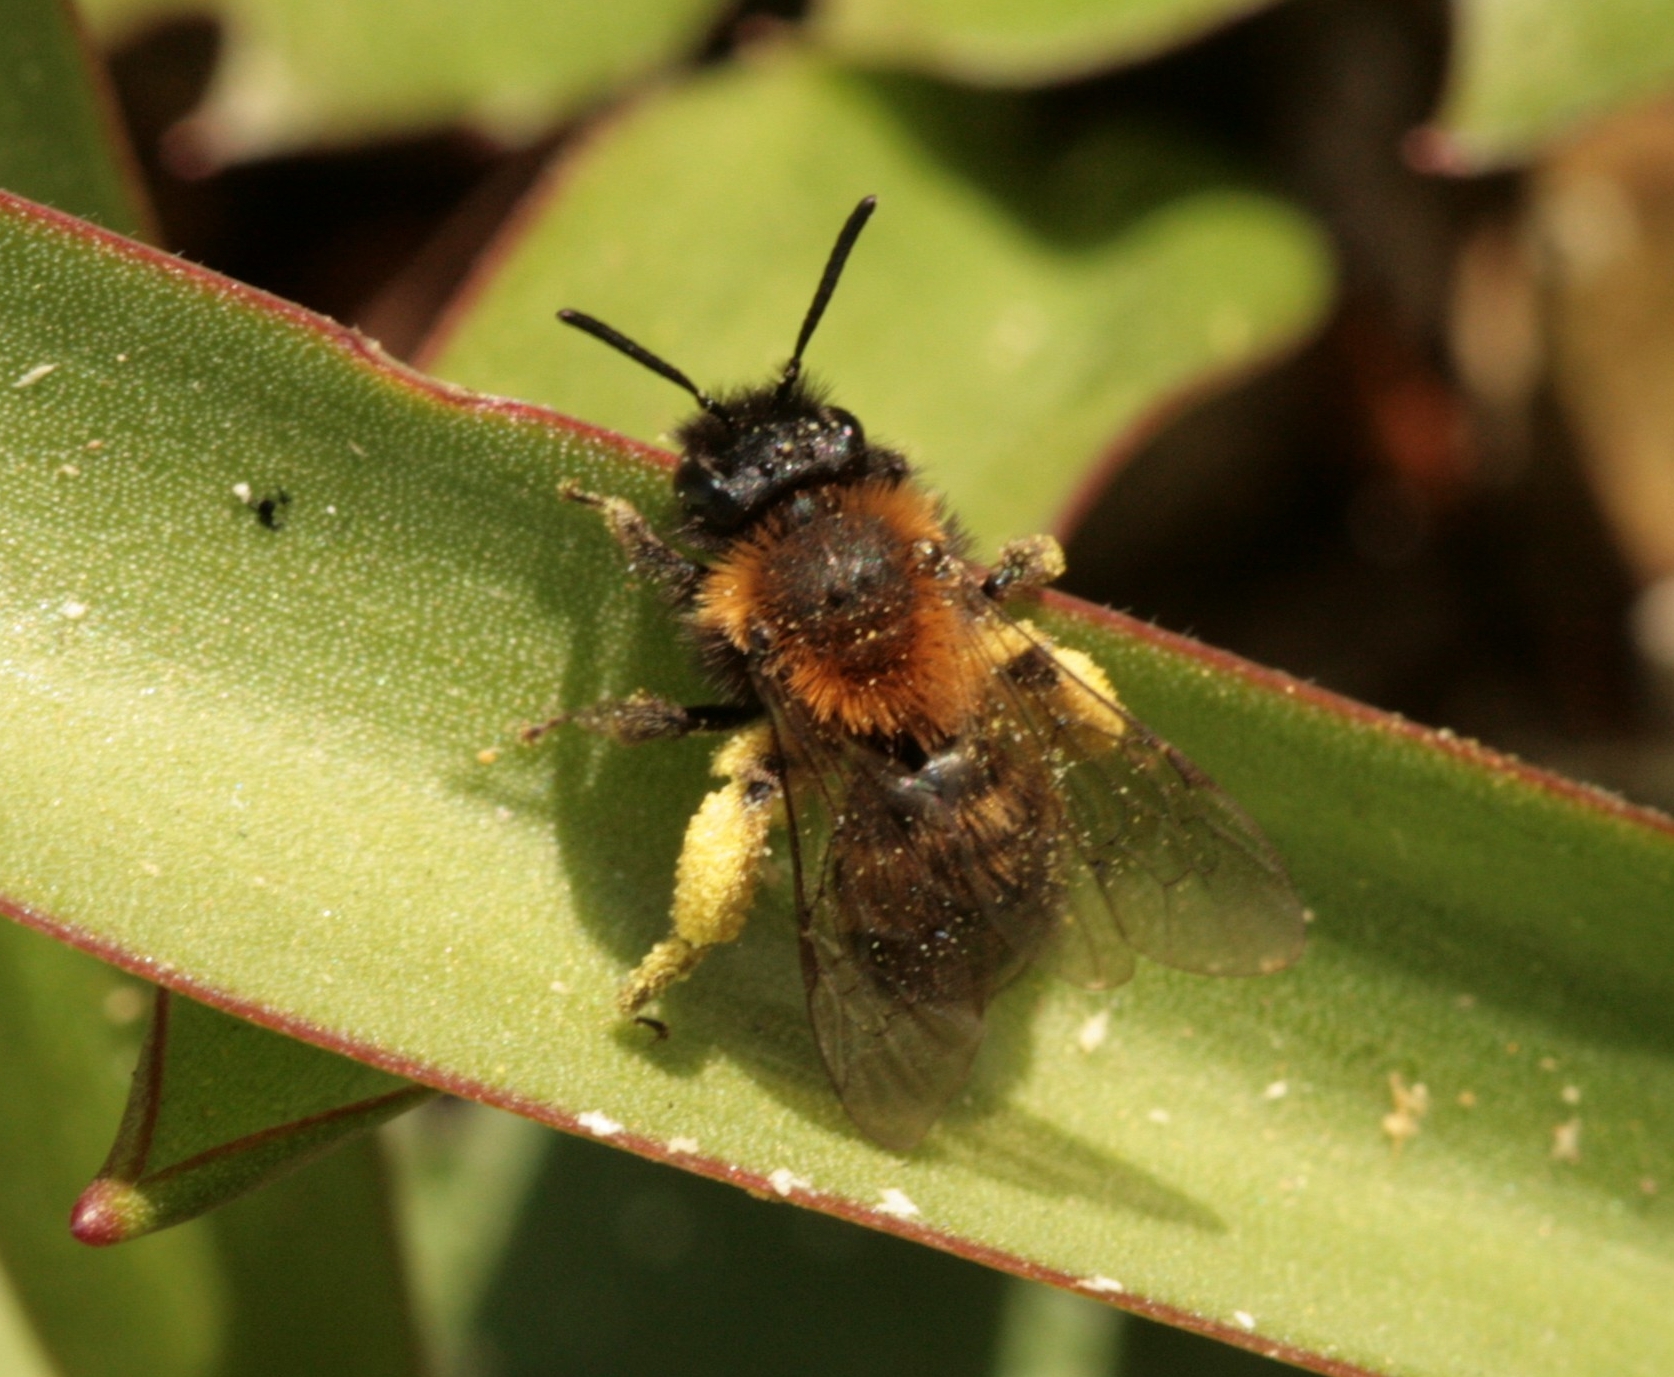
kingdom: Animalia
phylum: Arthropoda
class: Insecta
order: Hymenoptera
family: Andrenidae
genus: Andrena
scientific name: Andrena bicolor
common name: Gwynne's mining bee
